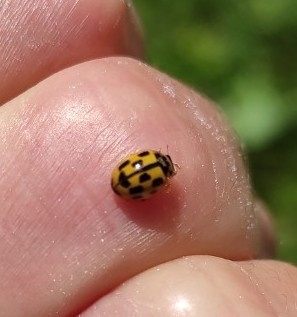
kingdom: Animalia
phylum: Arthropoda
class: Insecta
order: Coleoptera
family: Coccinellidae
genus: Propylaea
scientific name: Propylaea quatuordecimpunctata
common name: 14-spotted ladybird beetle
